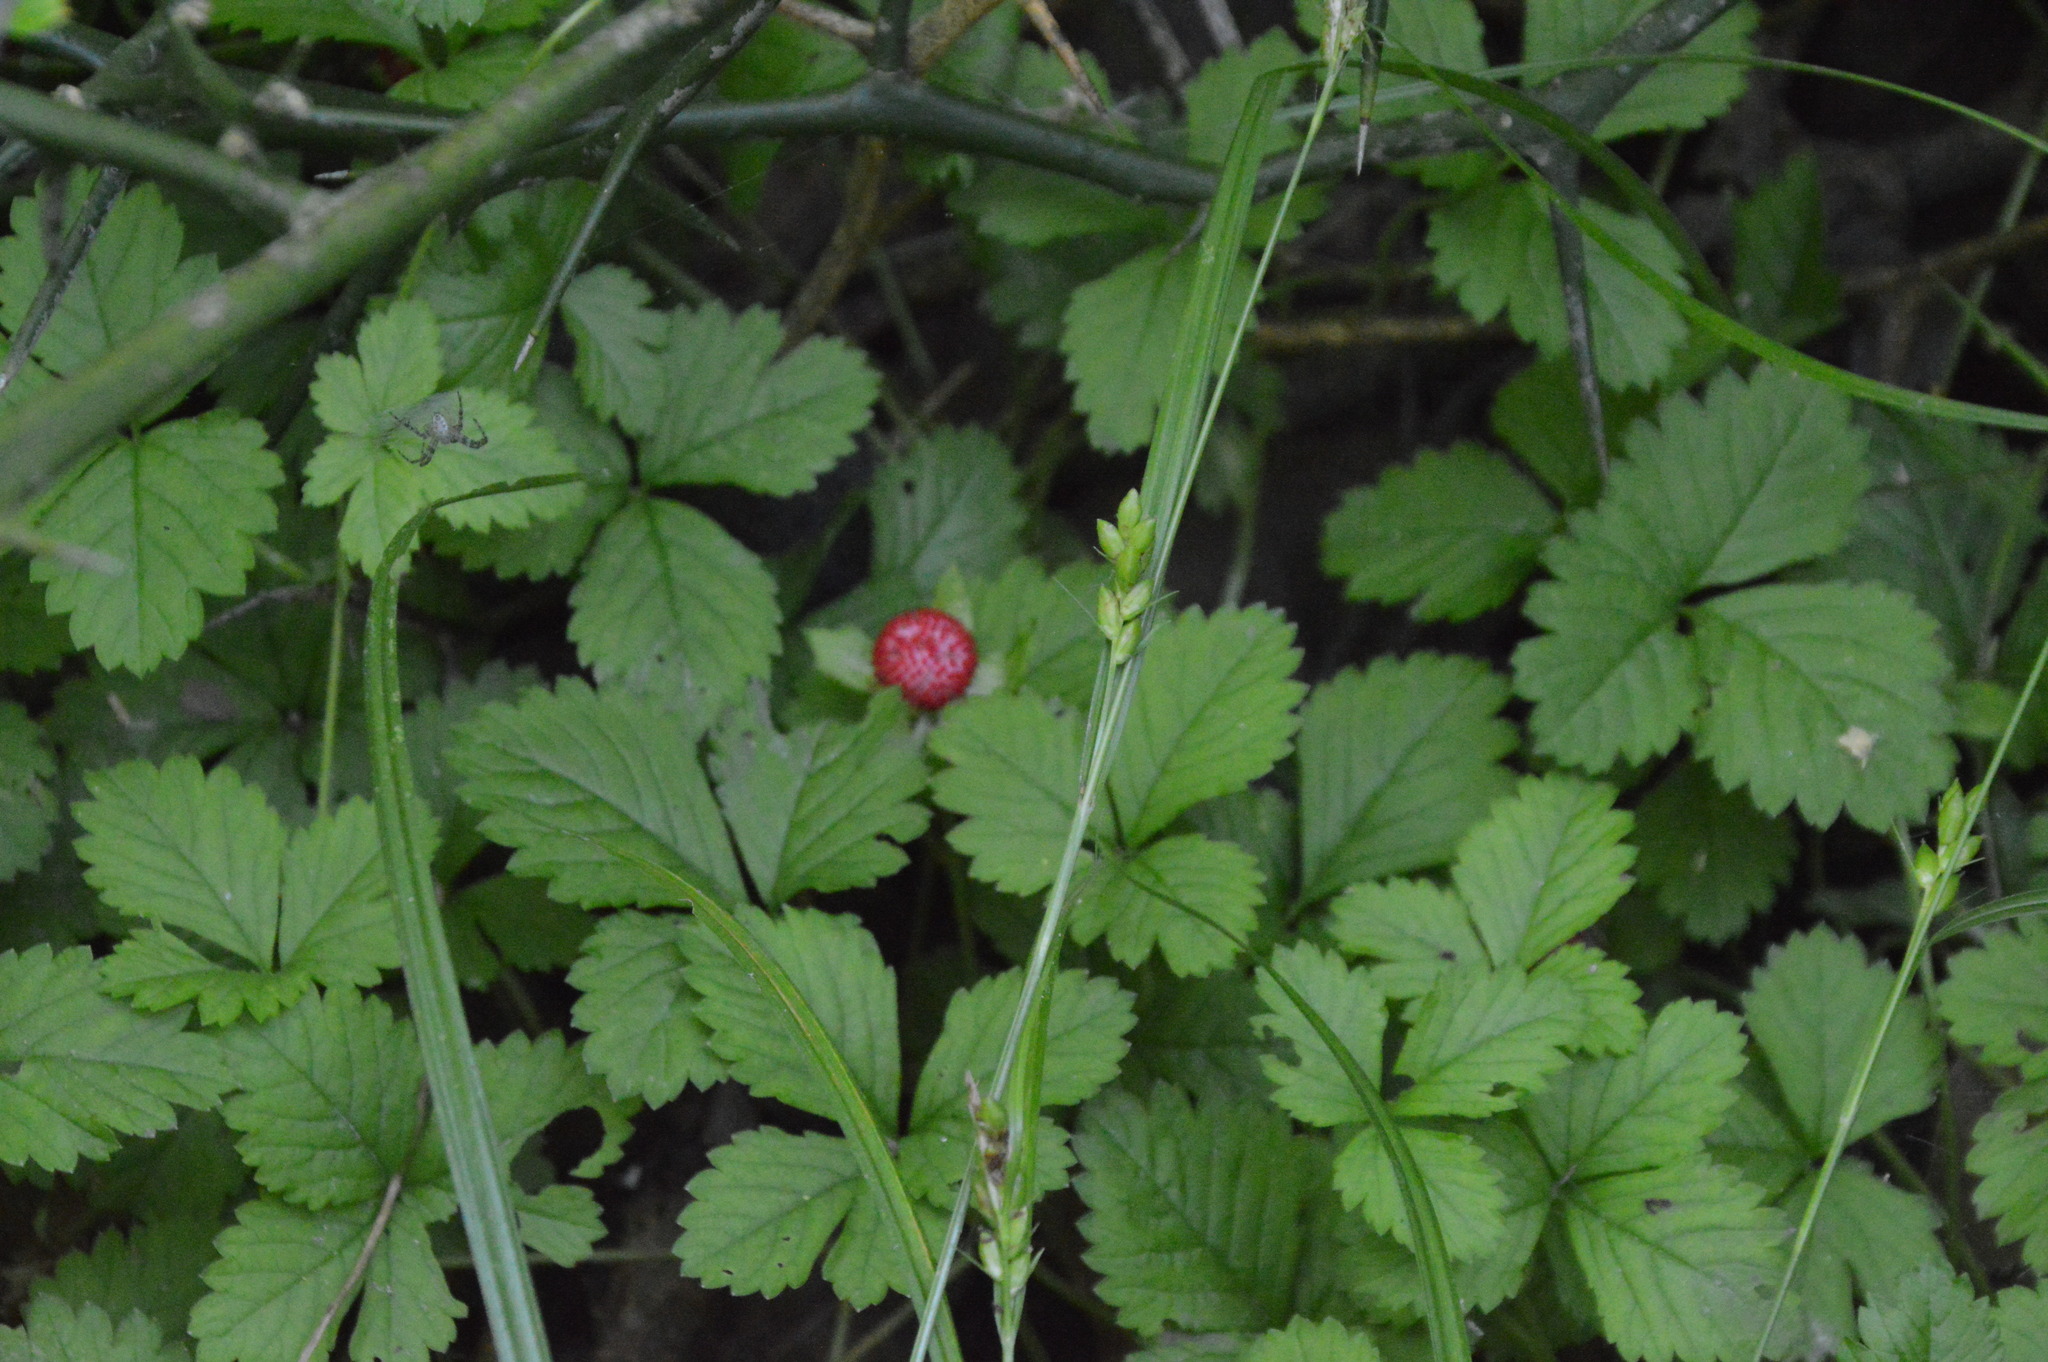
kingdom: Plantae
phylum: Tracheophyta
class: Magnoliopsida
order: Rosales
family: Rosaceae
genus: Potentilla
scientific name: Potentilla indica
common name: Yellow-flowered strawberry
